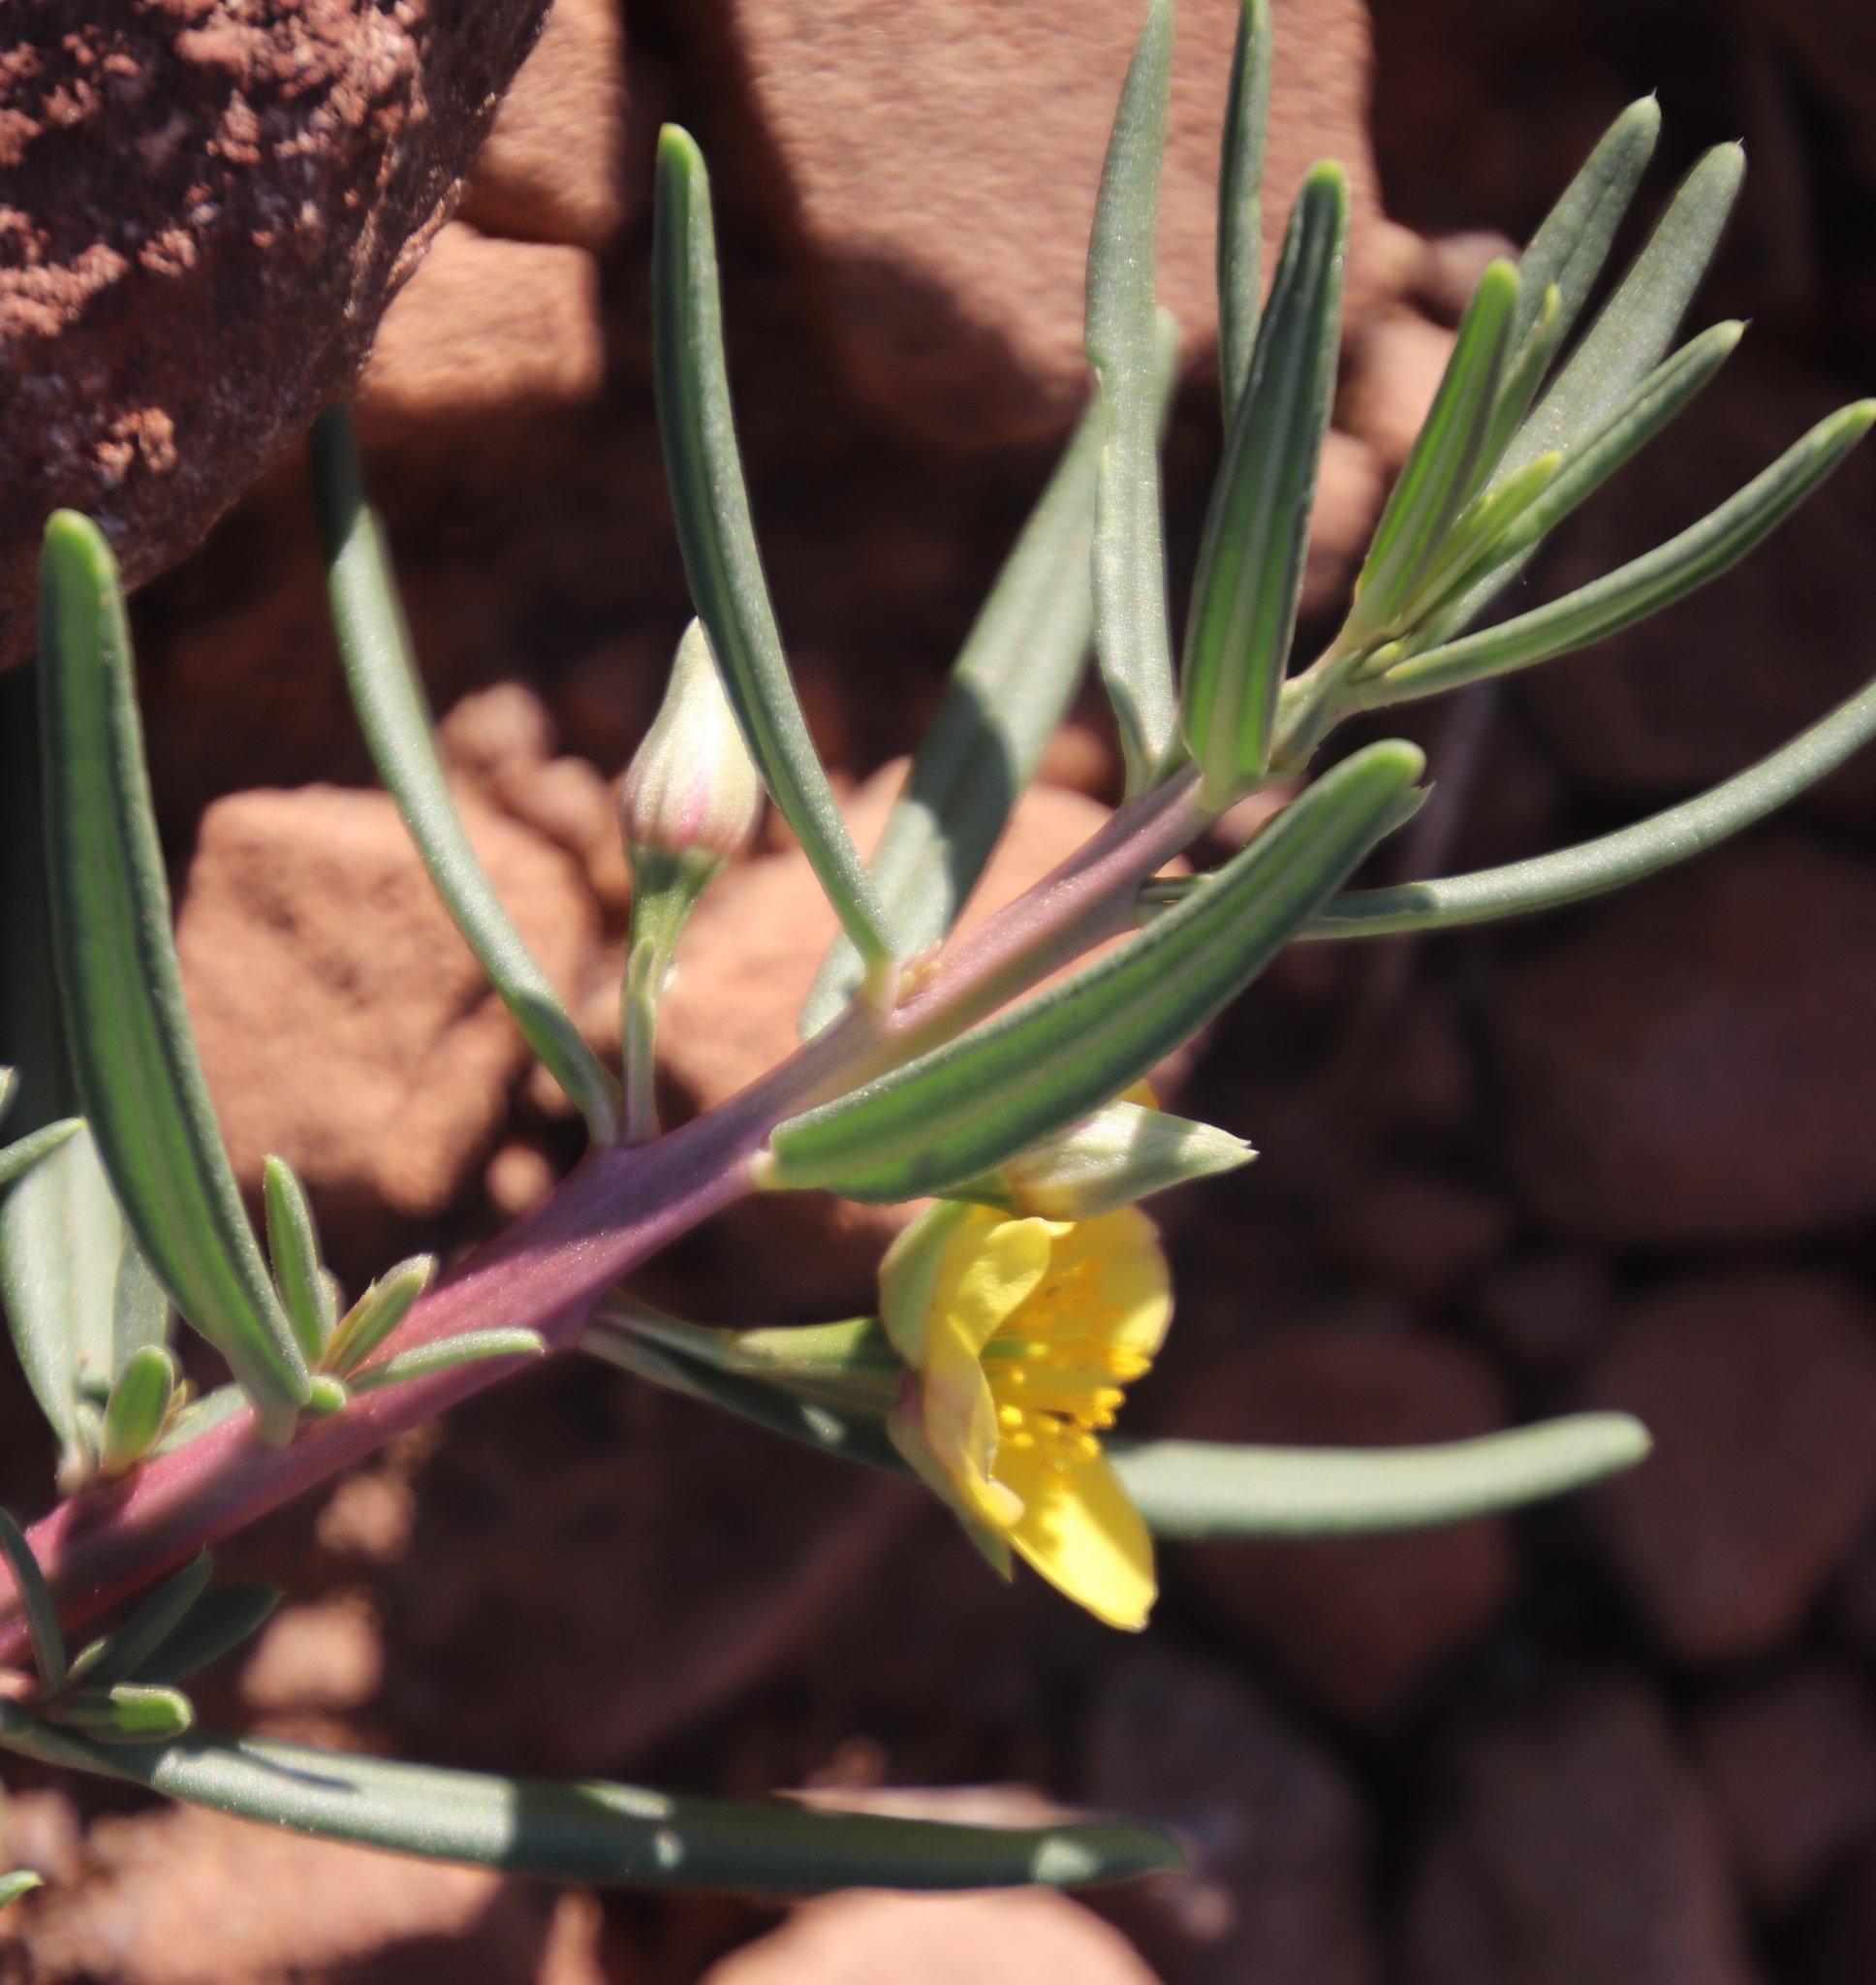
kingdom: Plantae
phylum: Tracheophyta
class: Magnoliopsida
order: Caryophyllales
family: Talinaceae
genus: Talinum
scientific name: Talinum caffrum
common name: Flameflower
